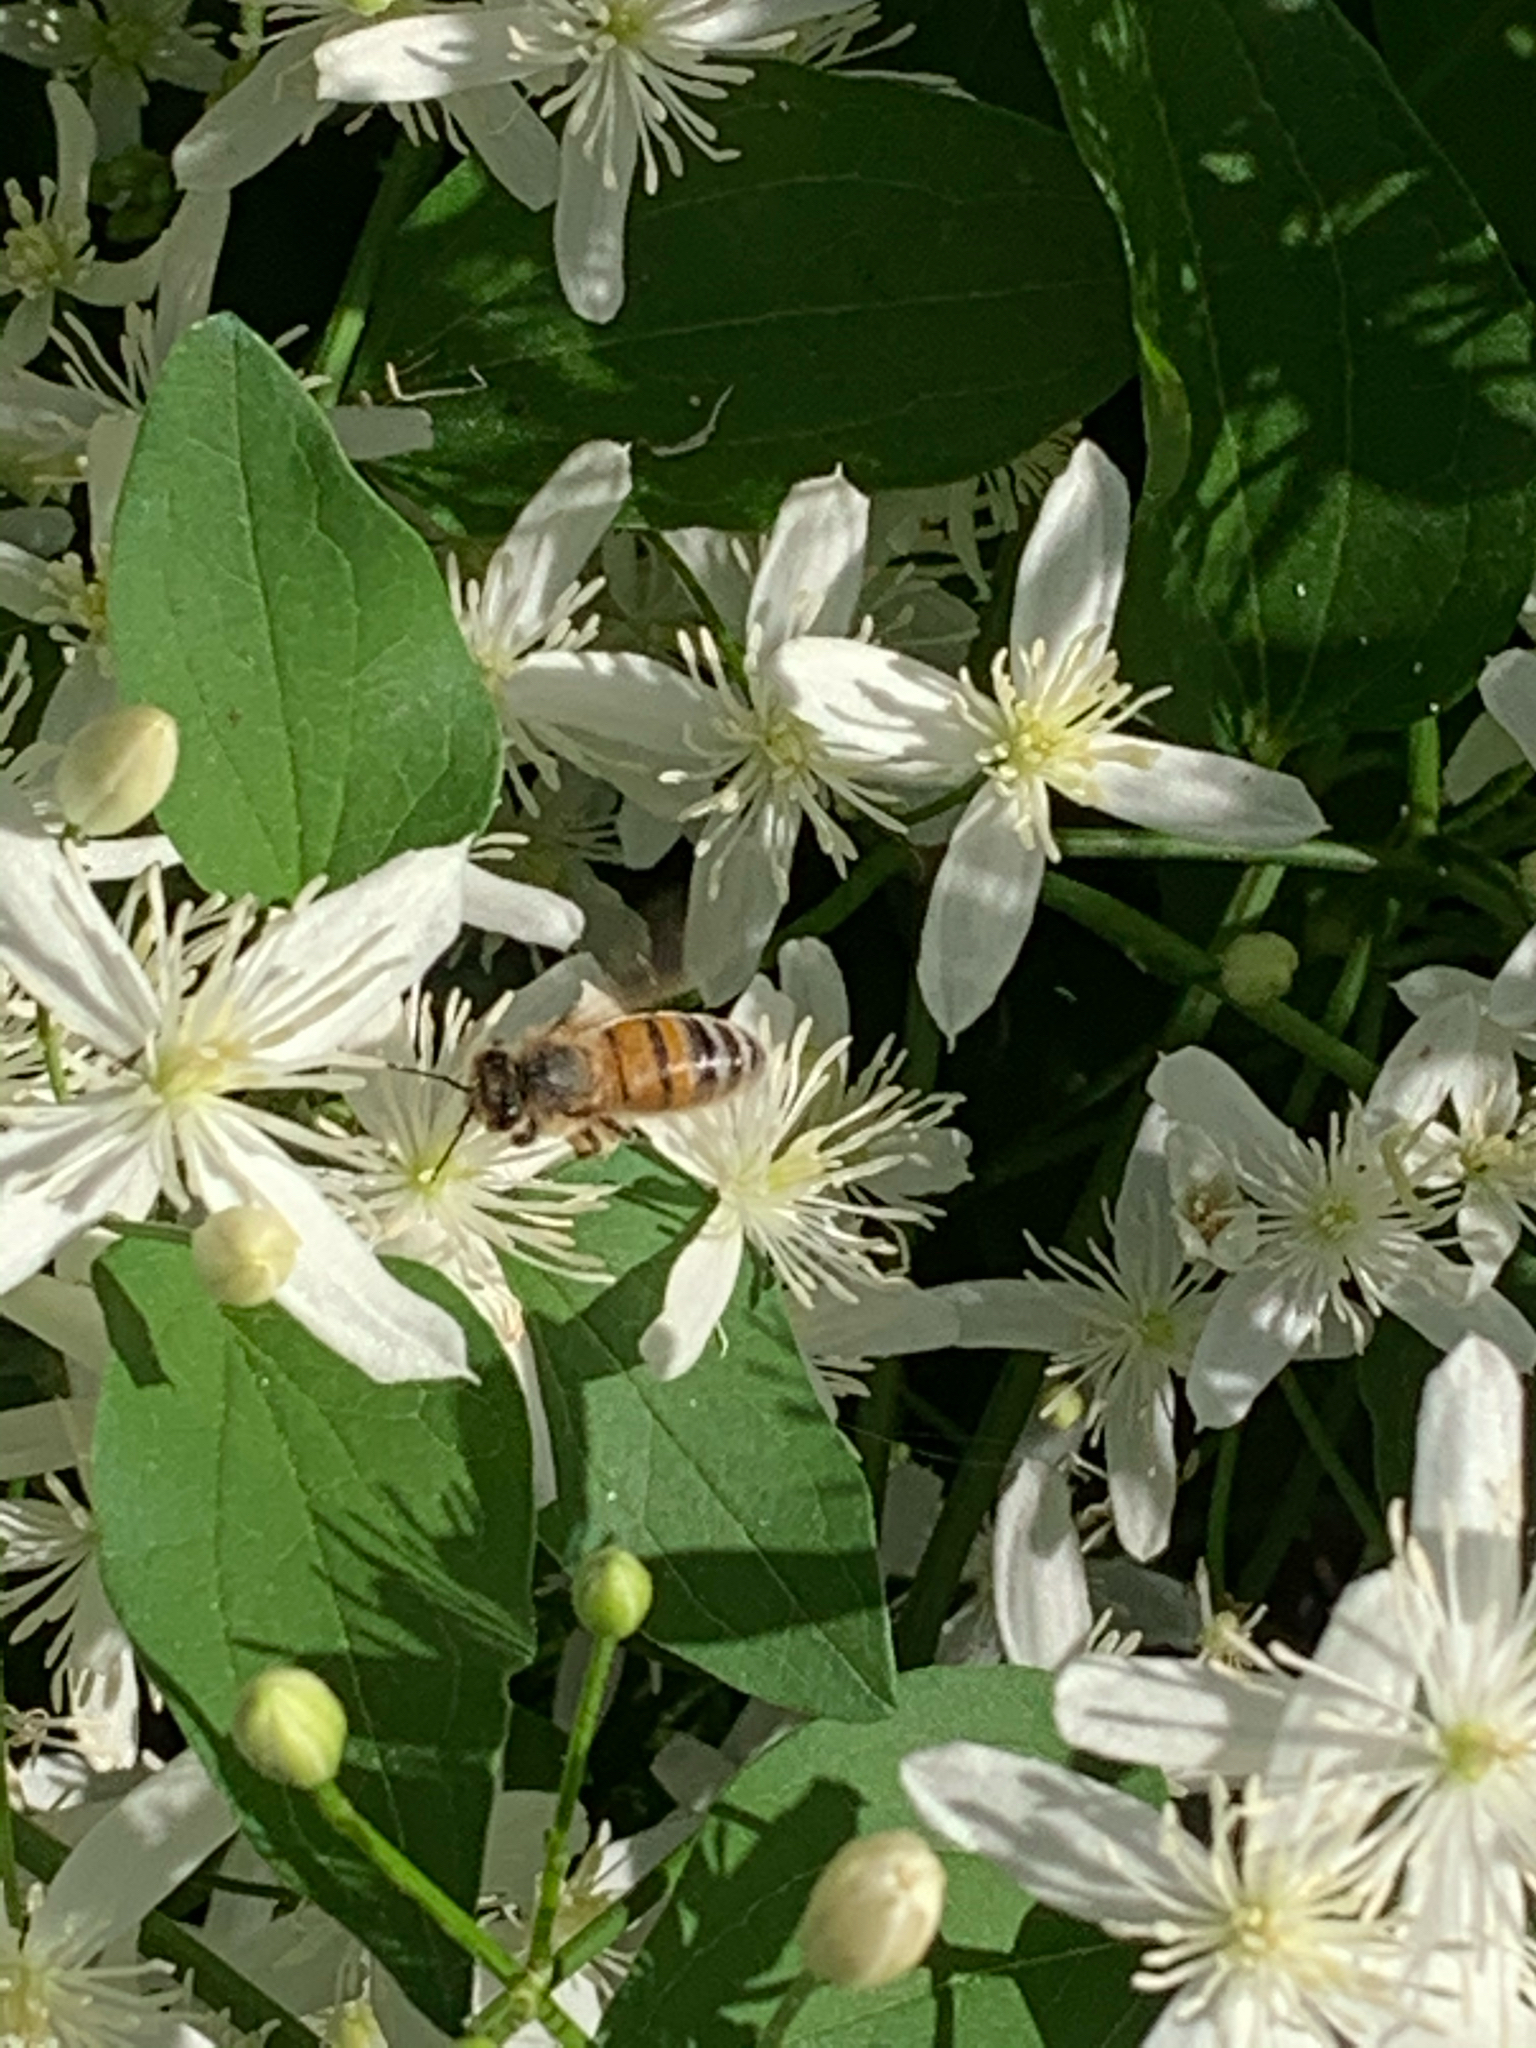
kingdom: Animalia
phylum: Arthropoda
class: Insecta
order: Hymenoptera
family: Apidae
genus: Apis
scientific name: Apis mellifera
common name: Honey bee
